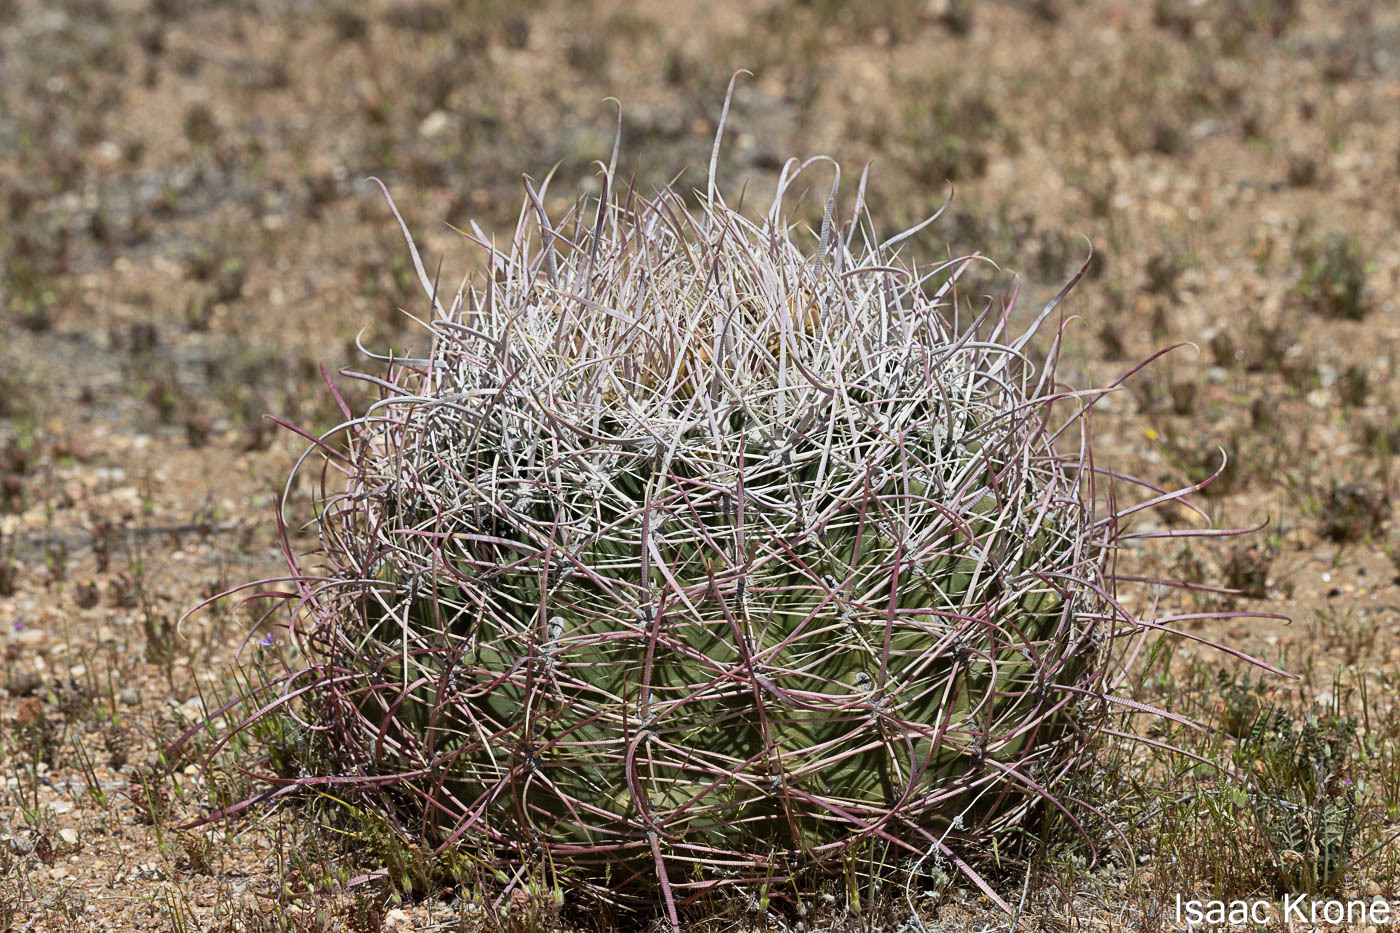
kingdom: Plantae
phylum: Tracheophyta
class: Magnoliopsida
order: Caryophyllales
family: Cactaceae
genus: Ferocactus
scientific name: Ferocactus cylindraceus
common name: California barrel cactus
